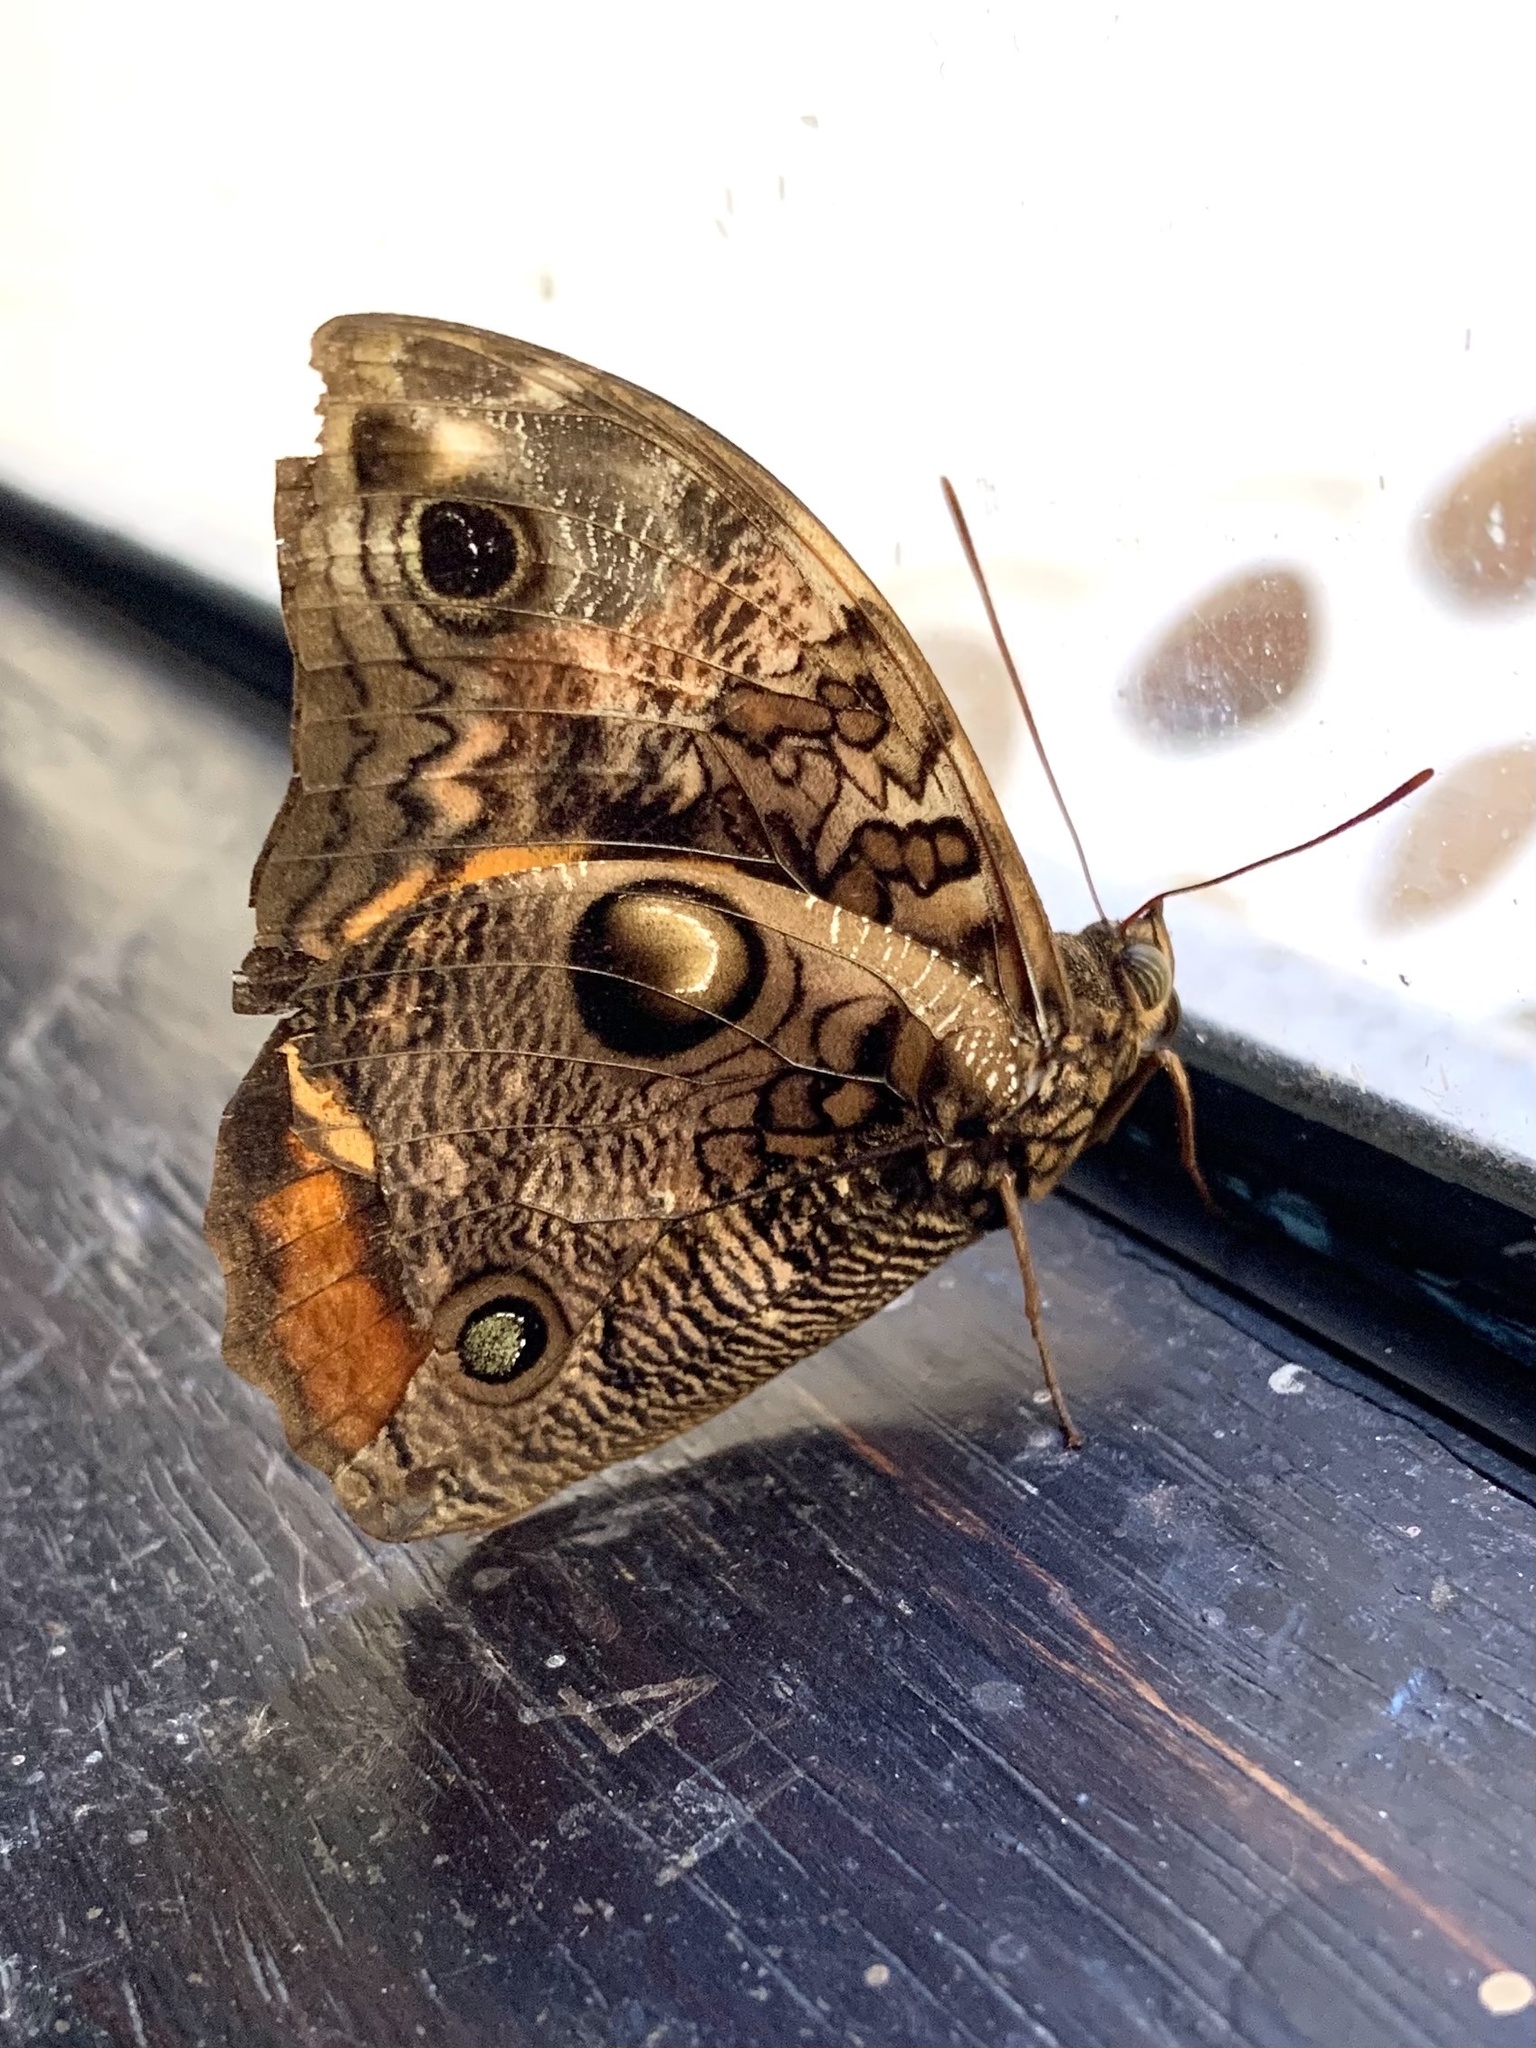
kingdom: Animalia
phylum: Arthropoda
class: Insecta
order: Lepidoptera
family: Nymphalidae
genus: Opsiphanes
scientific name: Opsiphanes sallei
